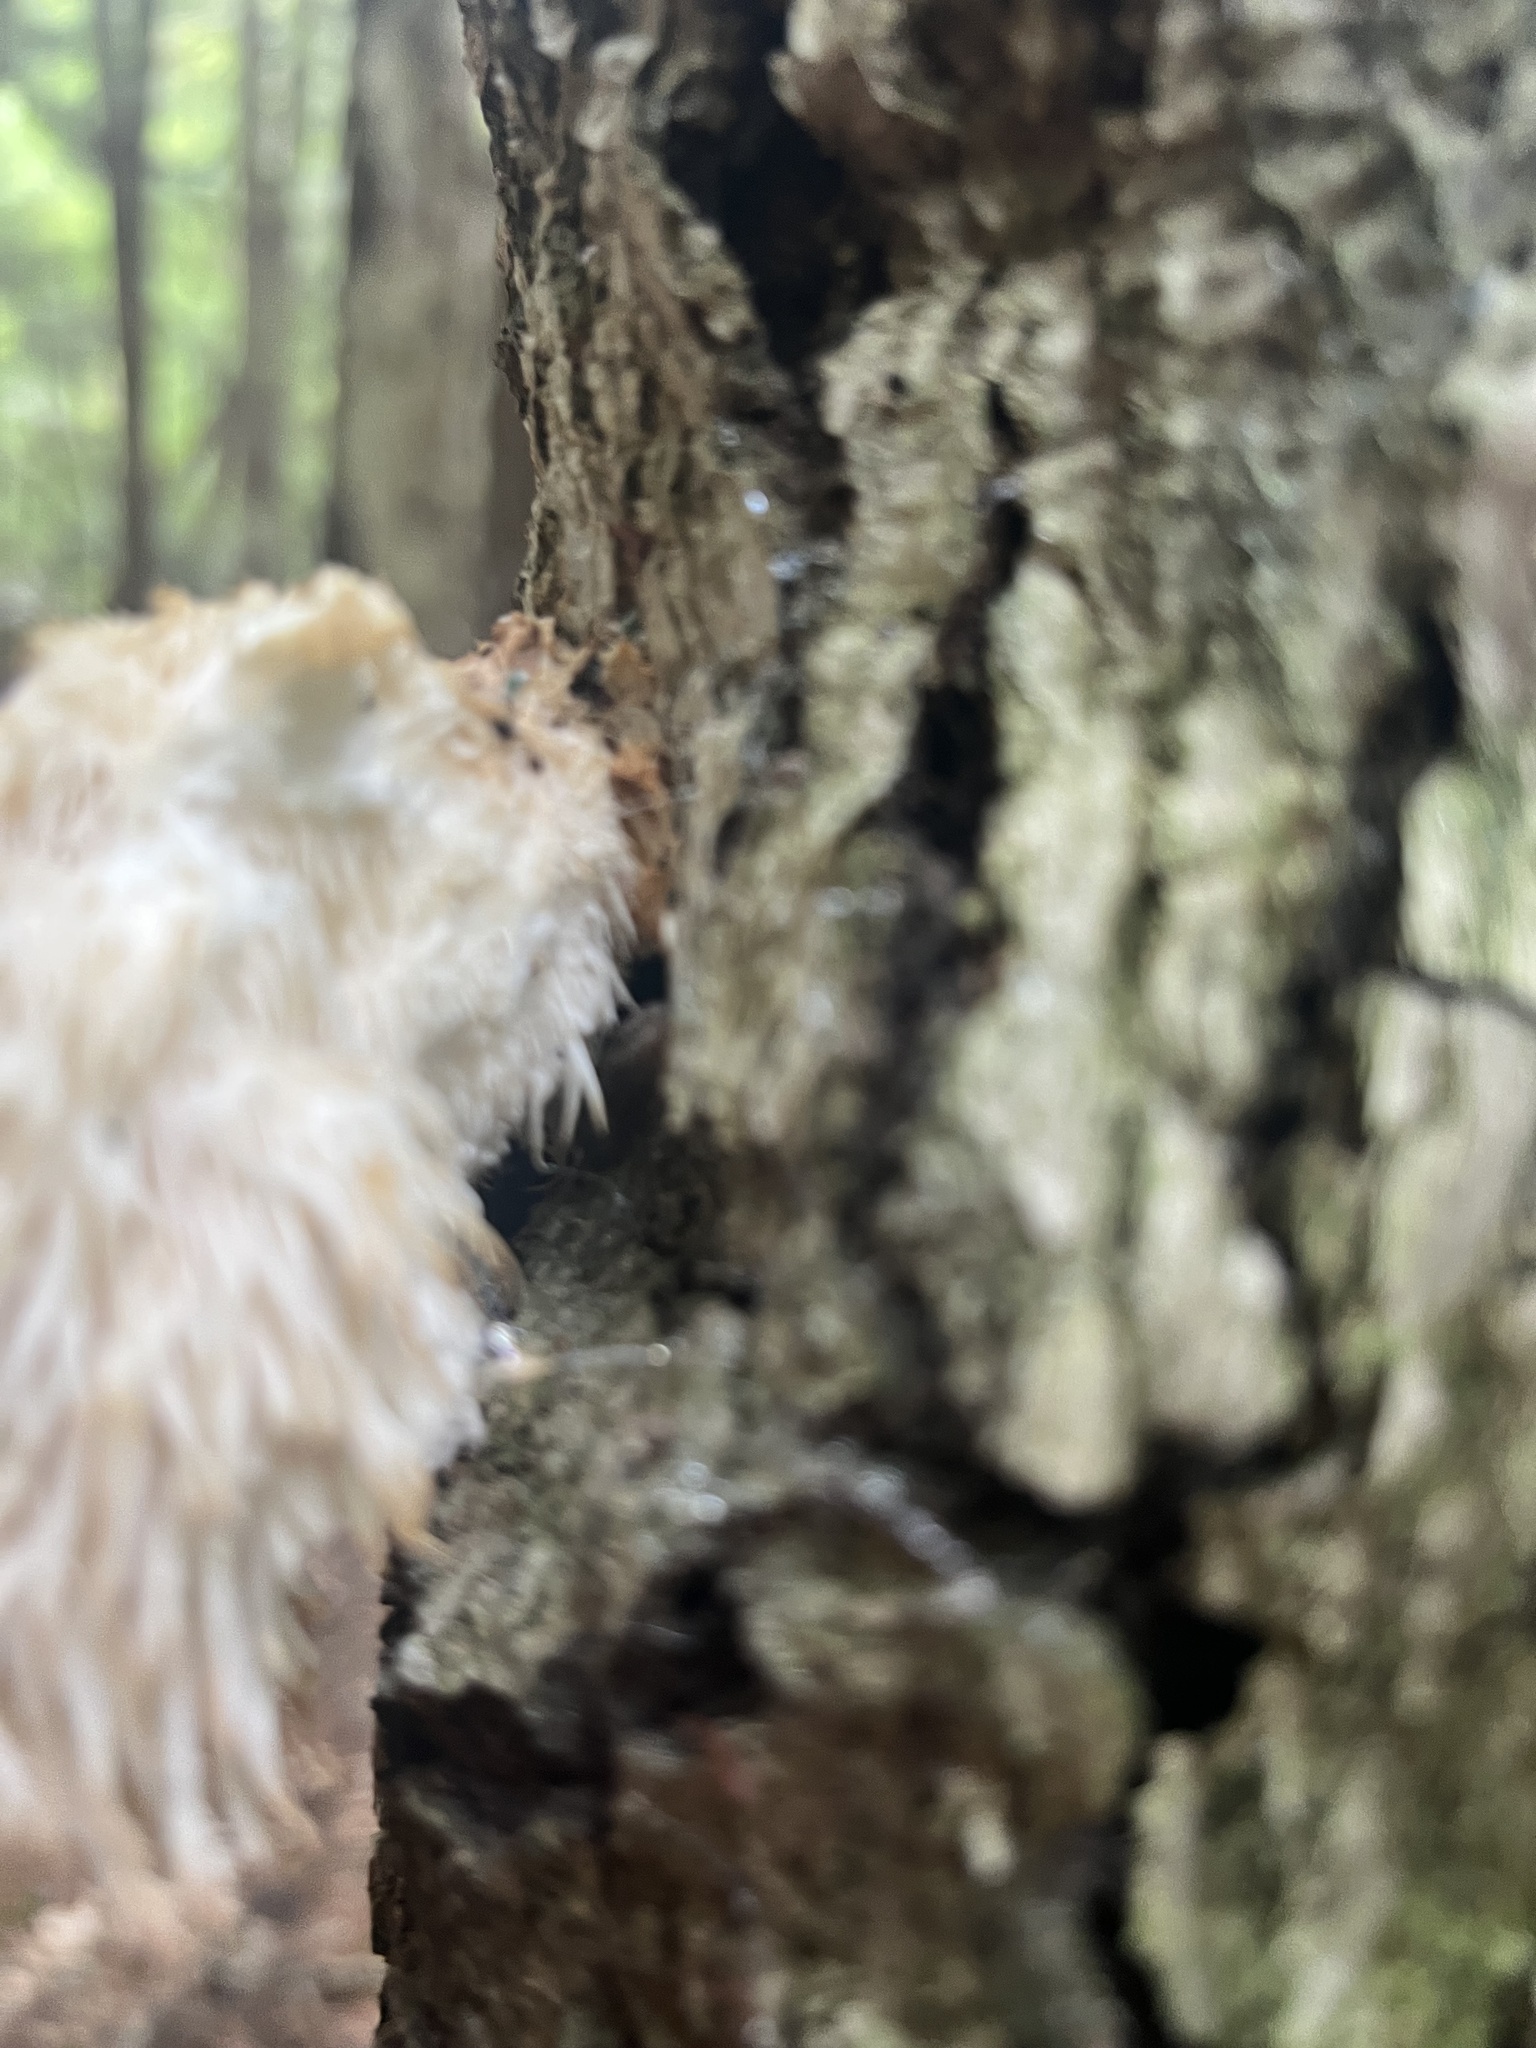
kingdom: Fungi
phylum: Basidiomycota
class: Agaricomycetes
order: Russulales
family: Hericiaceae
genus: Hericium
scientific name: Hericium erinaceus
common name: Bearded tooth
